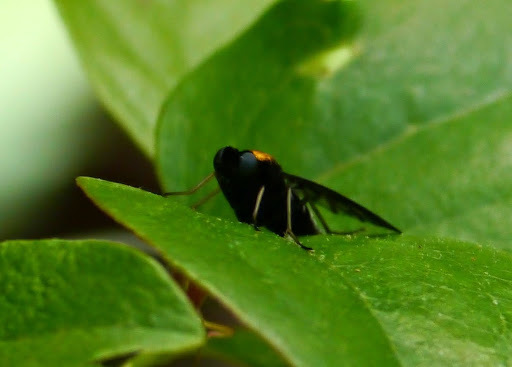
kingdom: Animalia
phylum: Arthropoda
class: Insecta
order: Diptera
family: Rhagionidae
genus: Chrysopilus
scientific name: Chrysopilus thoracicus
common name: Golden-backed snipe fly
